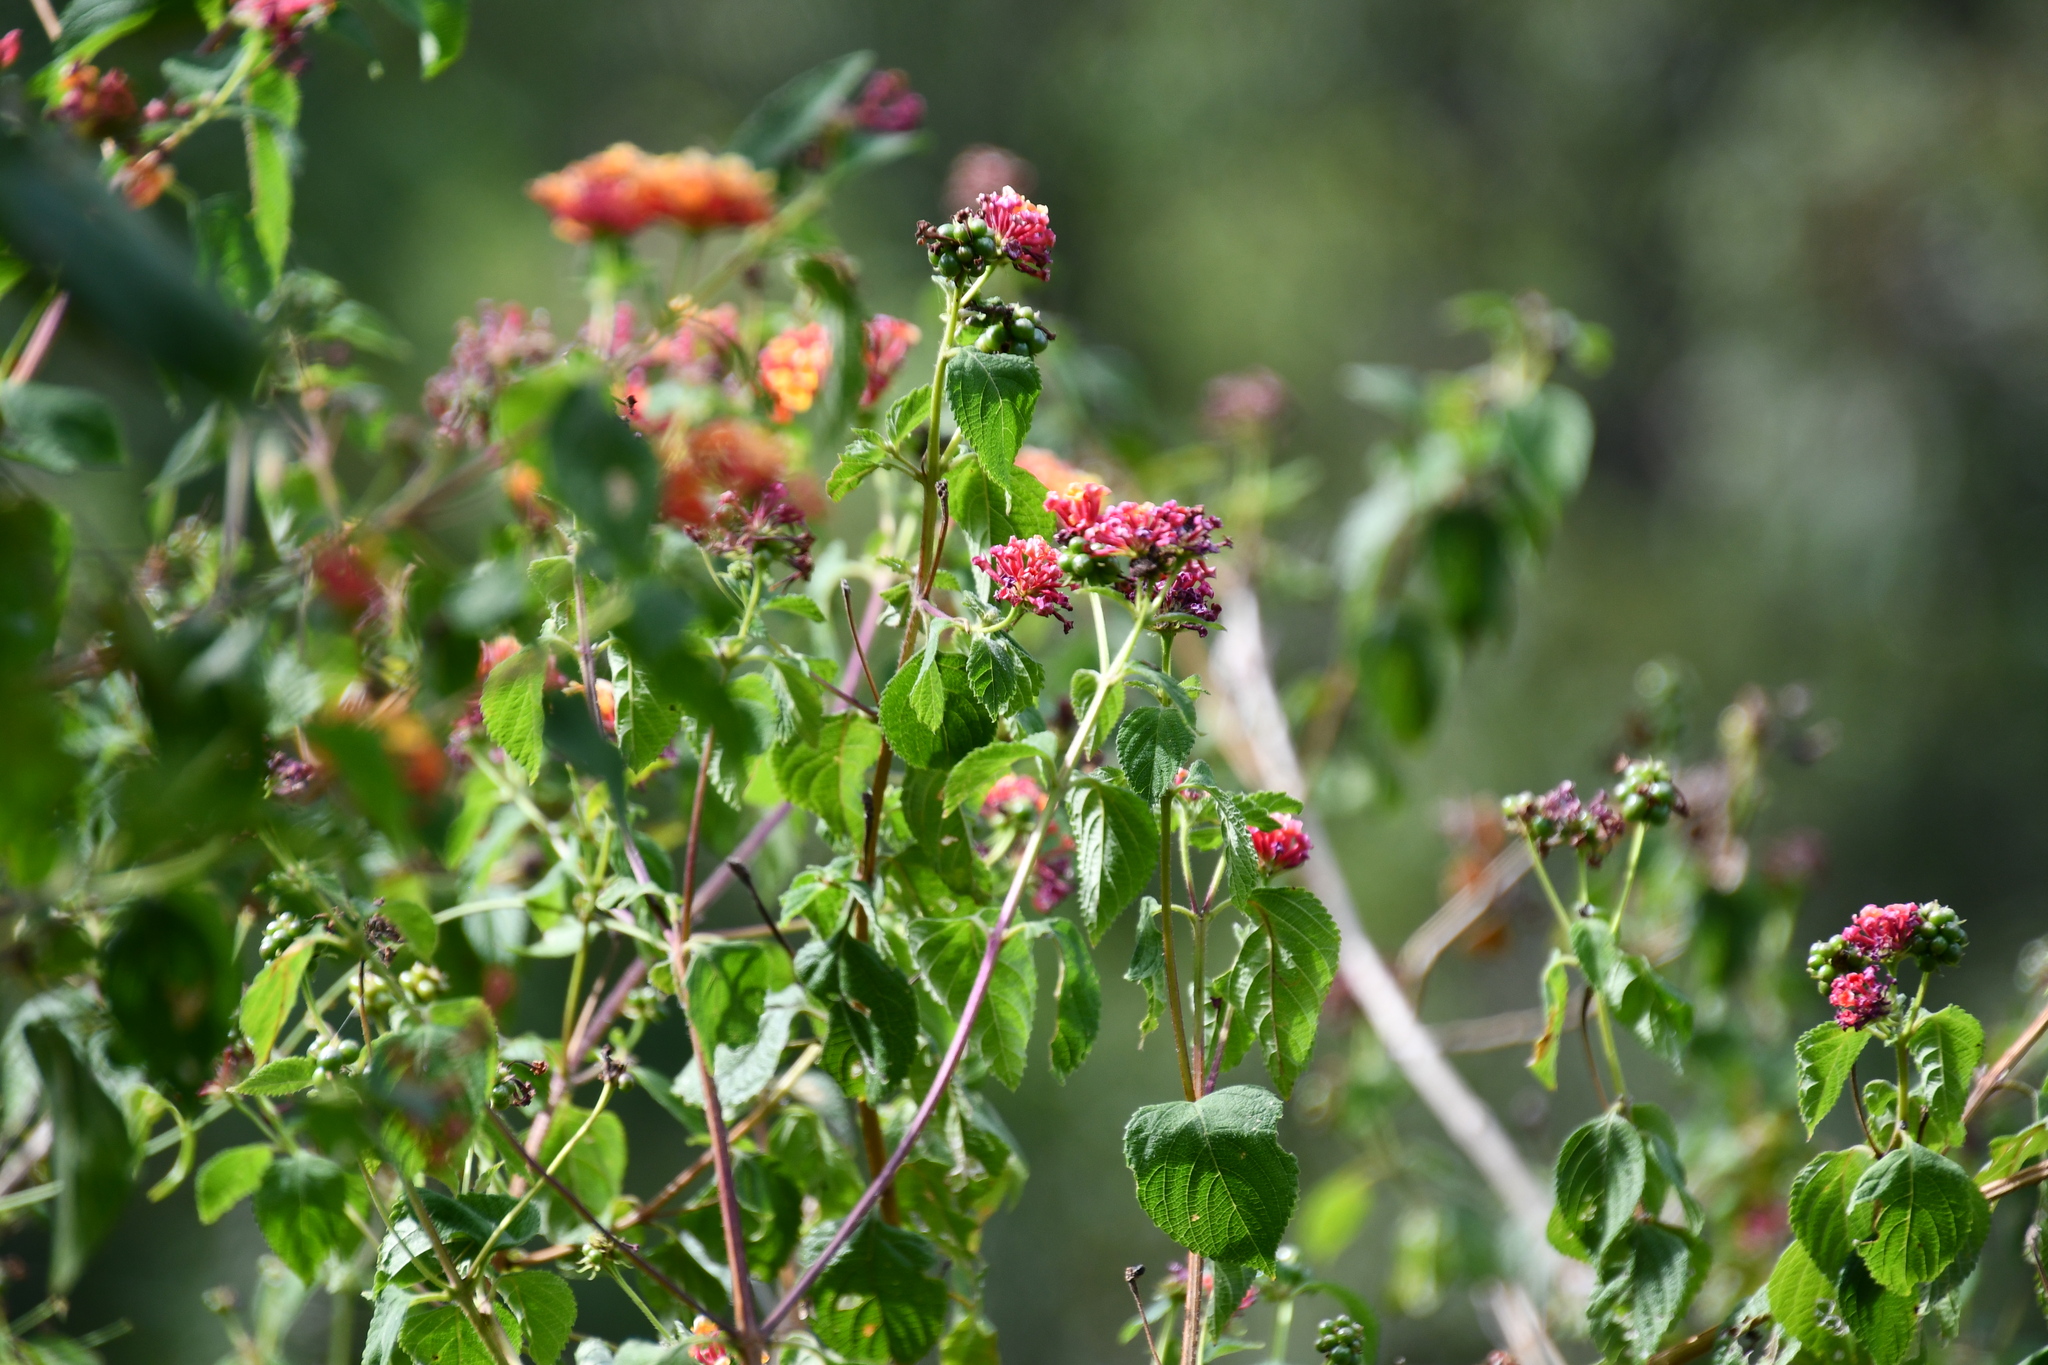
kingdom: Plantae
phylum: Tracheophyta
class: Magnoliopsida
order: Lamiales
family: Verbenaceae
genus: Lantana
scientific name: Lantana camara
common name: Lantana
